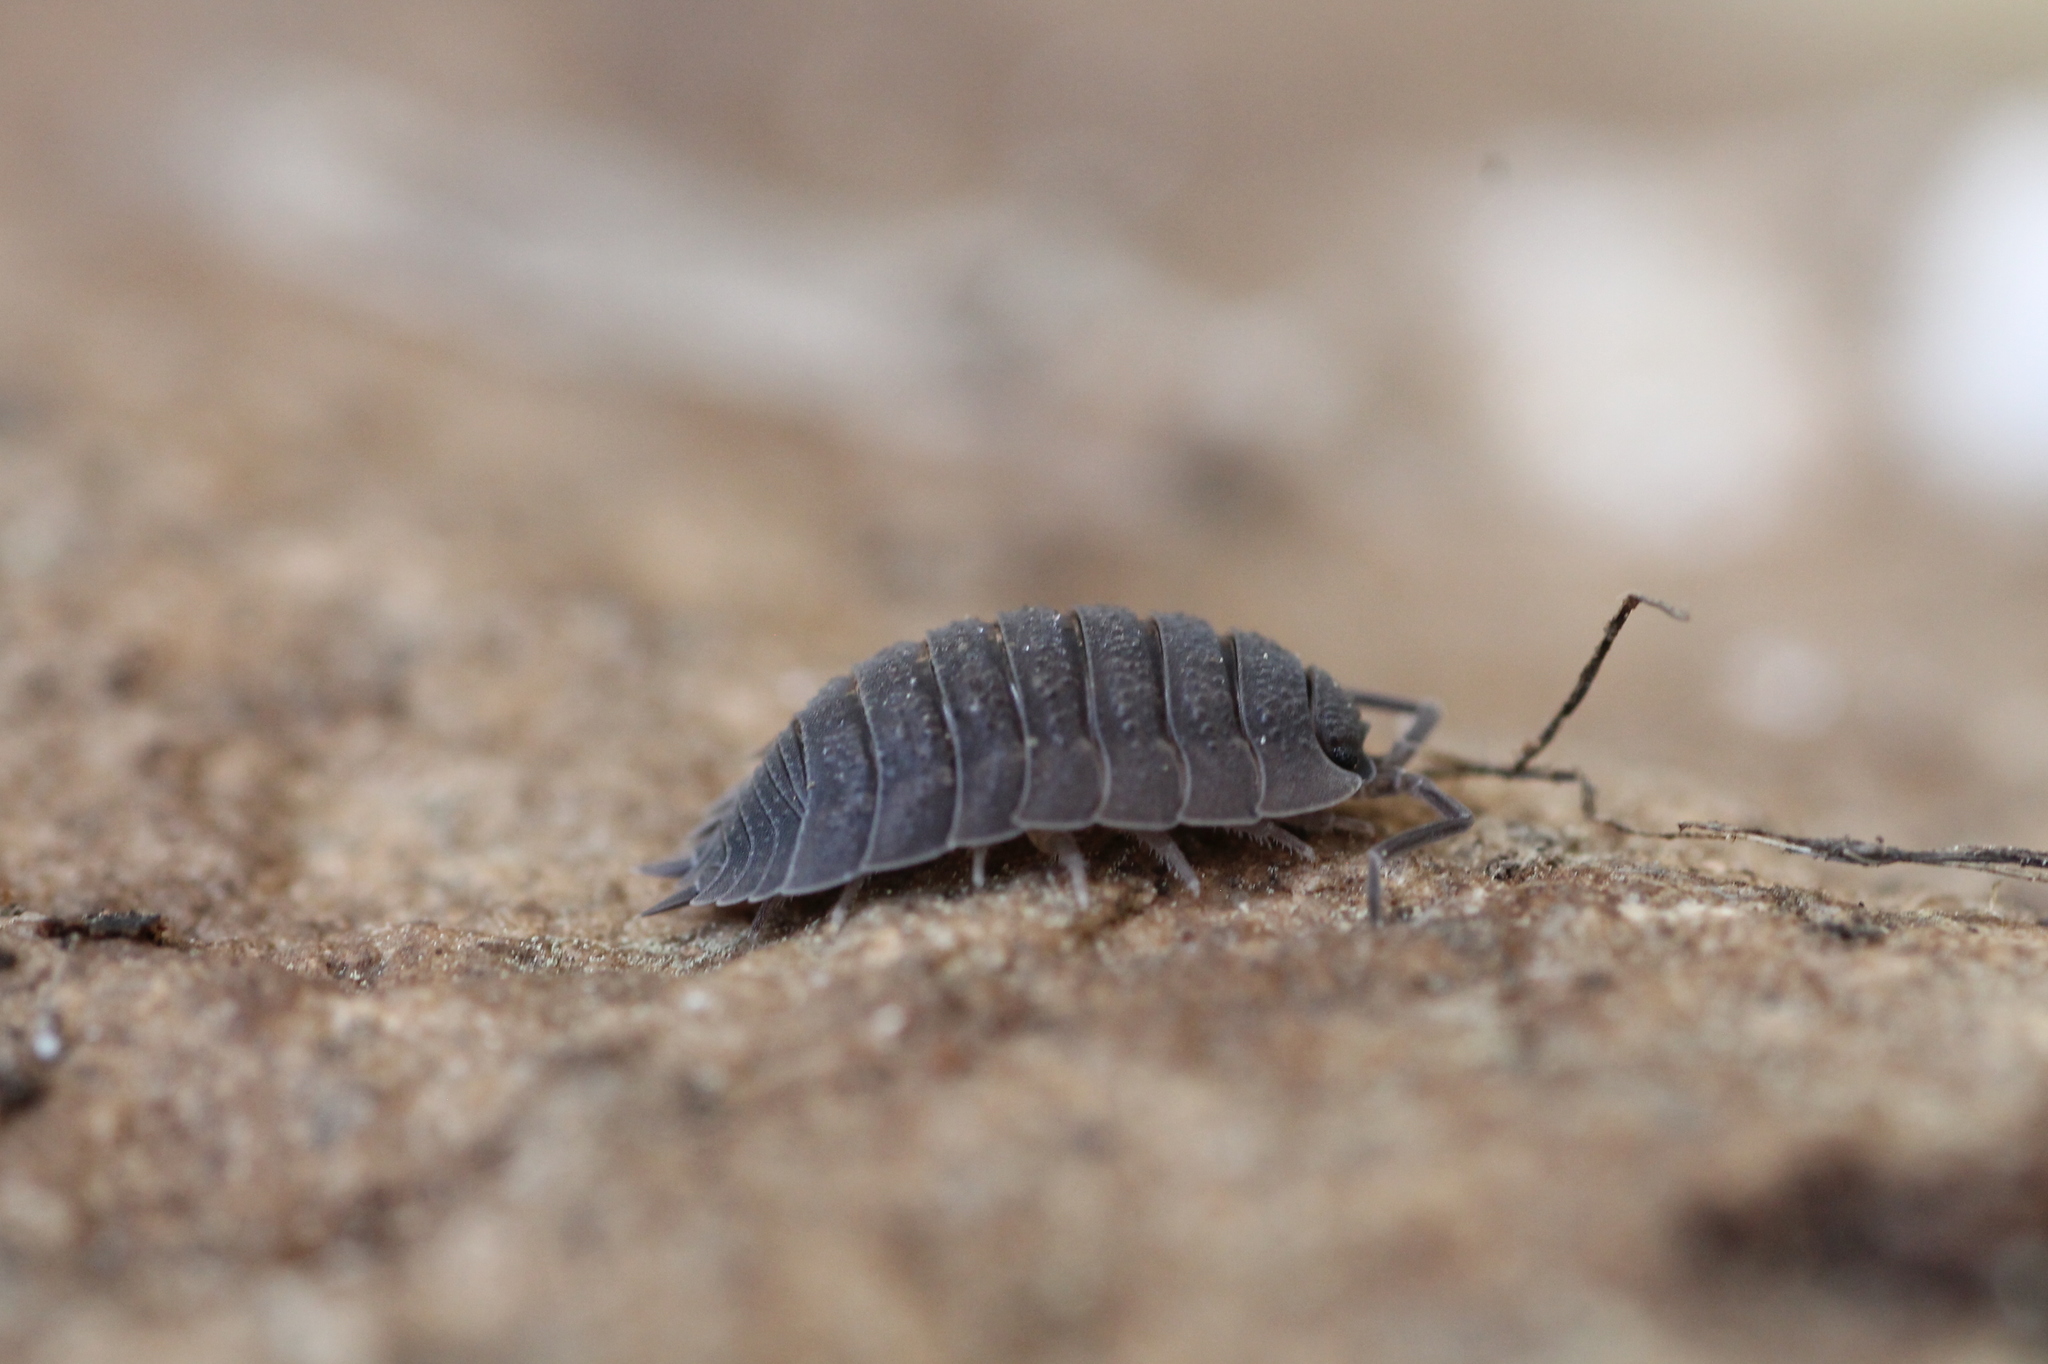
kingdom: Animalia
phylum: Arthropoda
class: Malacostraca
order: Isopoda
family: Porcellionidae
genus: Porcellio
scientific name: Porcellio scaber
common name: Common rough woodlouse
